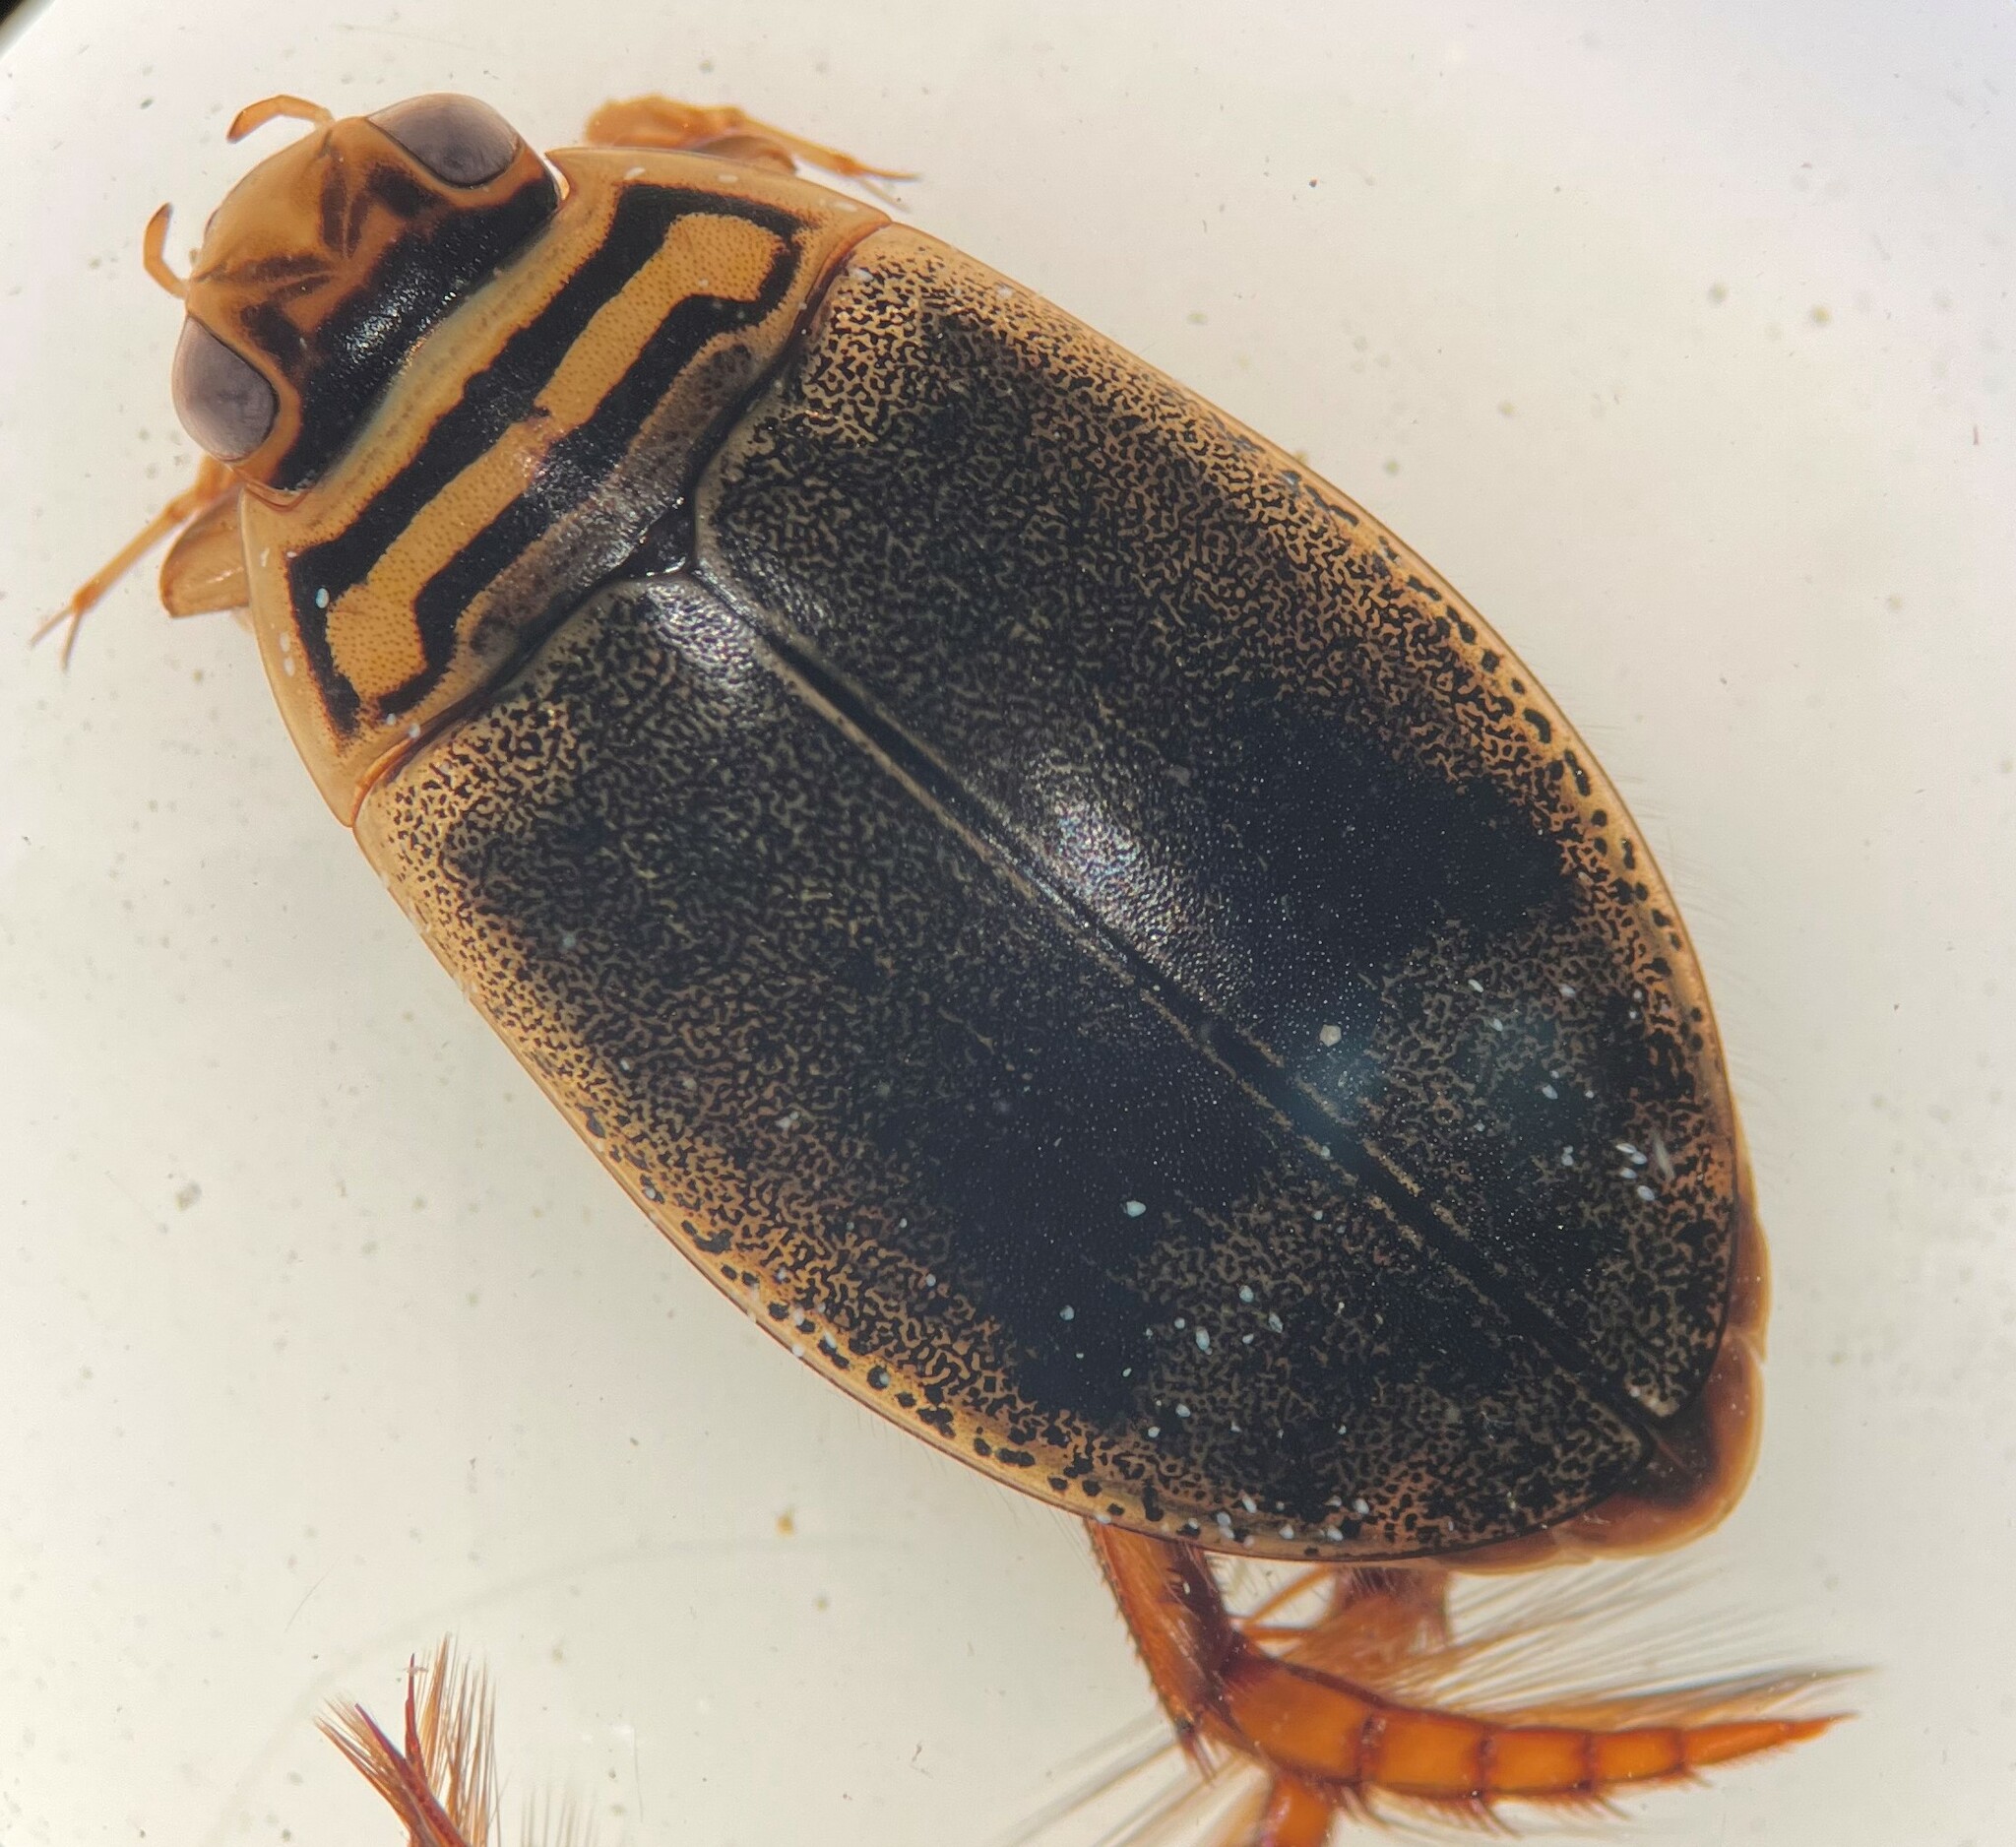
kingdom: Animalia
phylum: Arthropoda
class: Insecta
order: Coleoptera
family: Dytiscidae
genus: Acilius
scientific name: Acilius sylvanus
